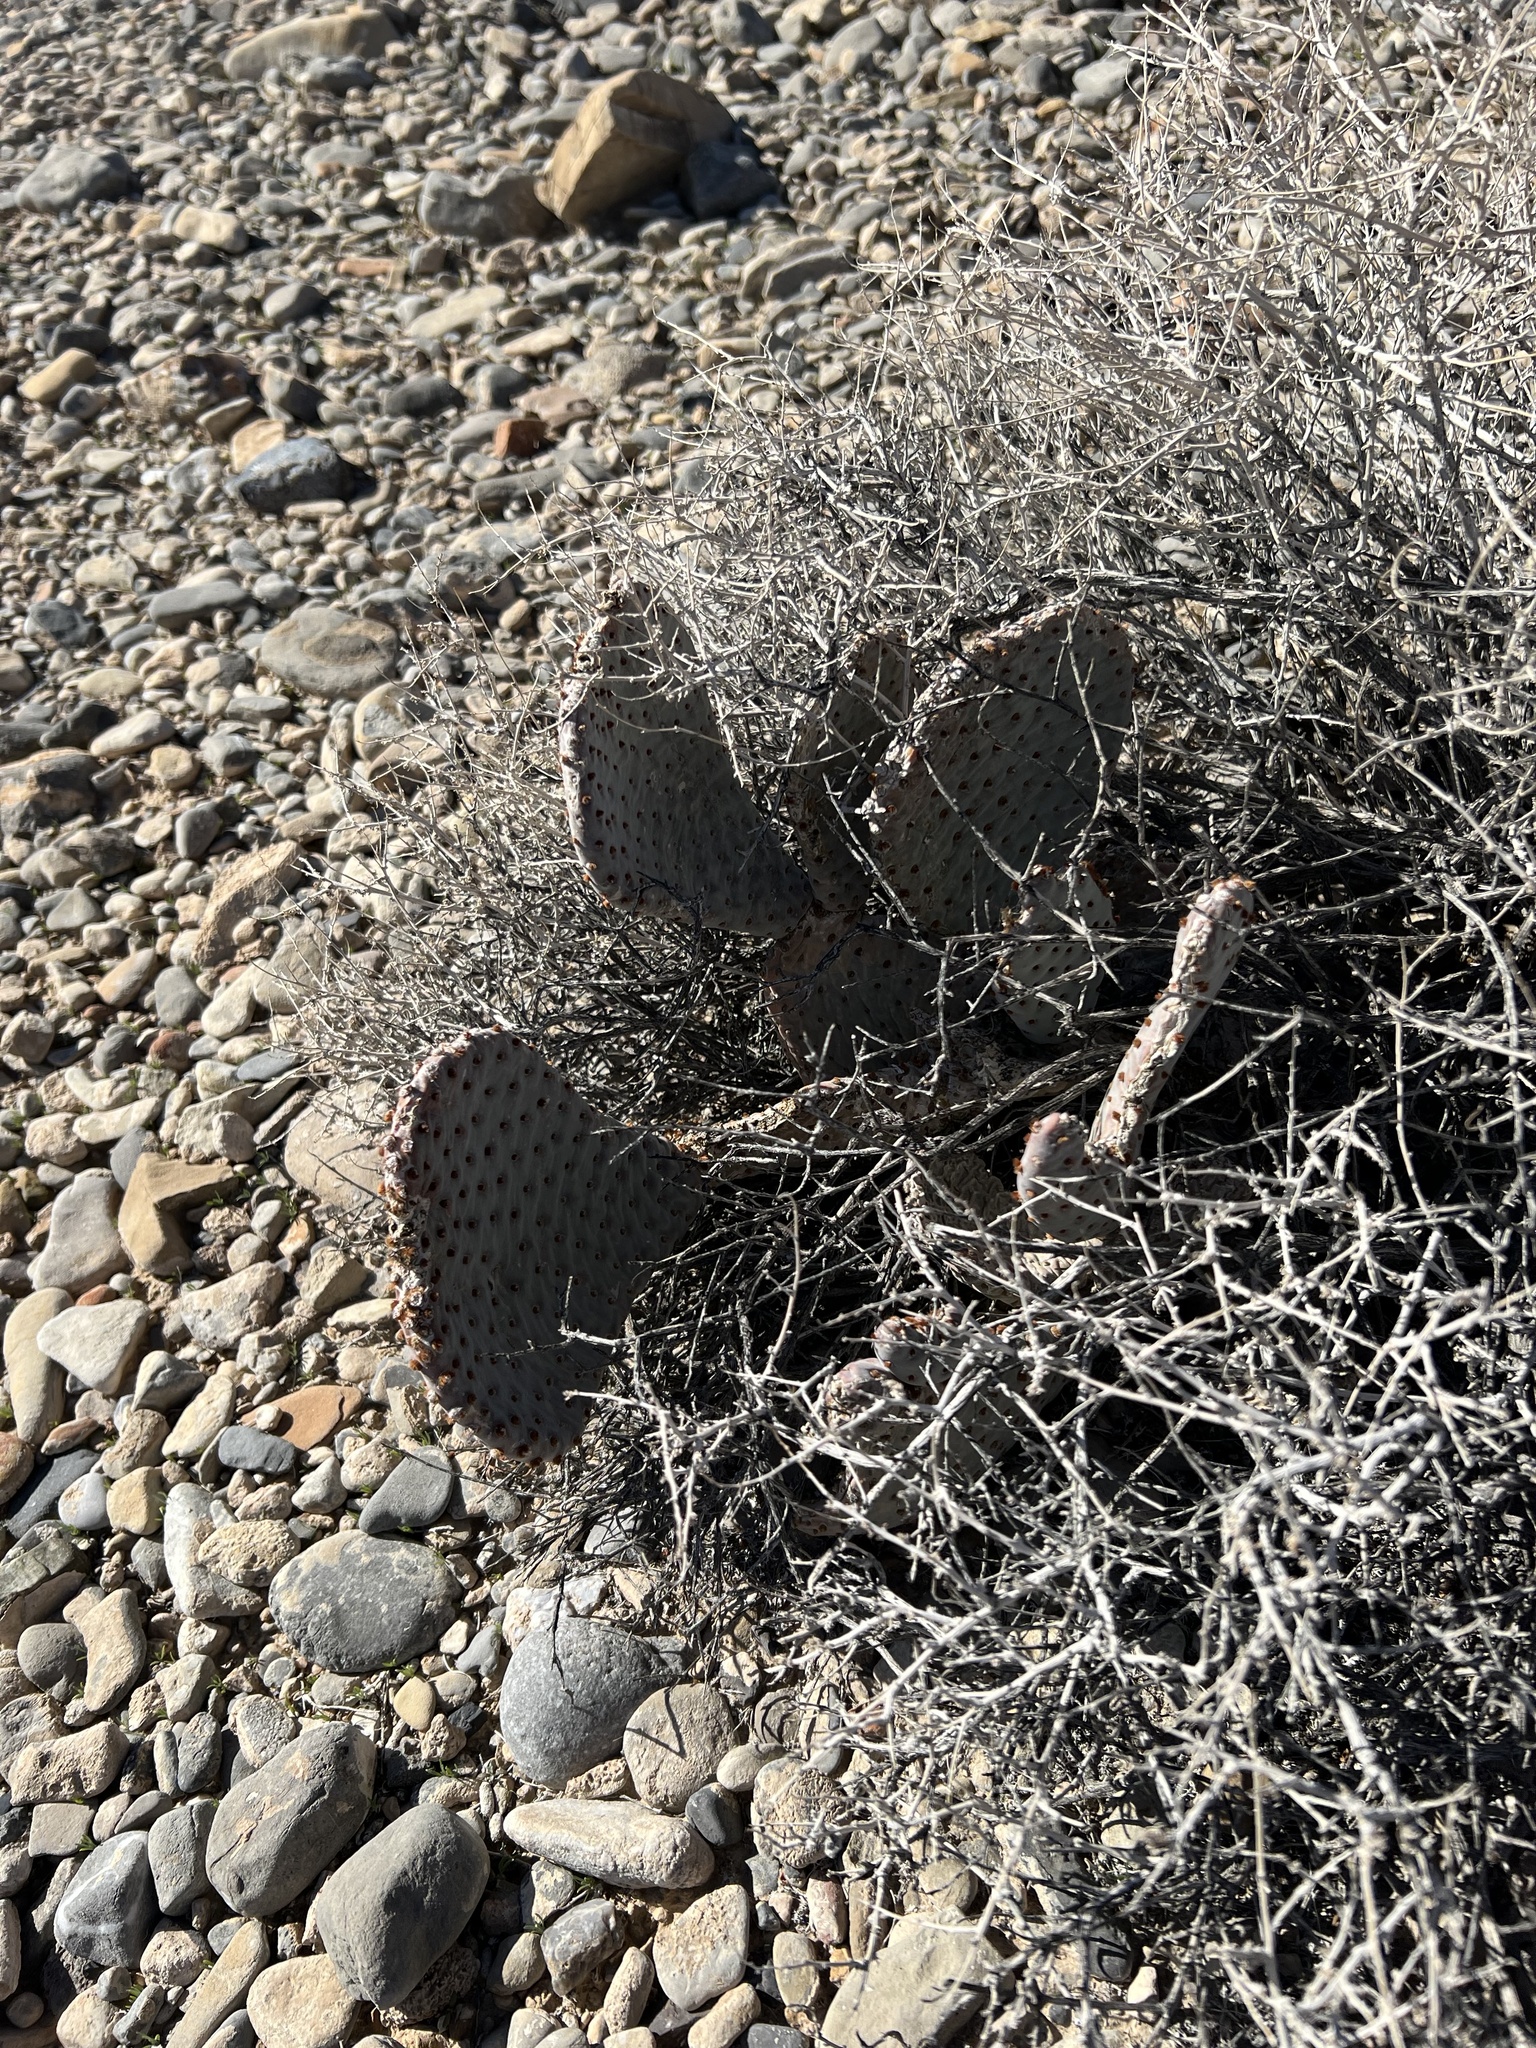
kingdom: Plantae
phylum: Tracheophyta
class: Magnoliopsida
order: Caryophyllales
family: Cactaceae
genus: Opuntia
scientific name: Opuntia basilaris
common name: Beavertail prickly-pear
